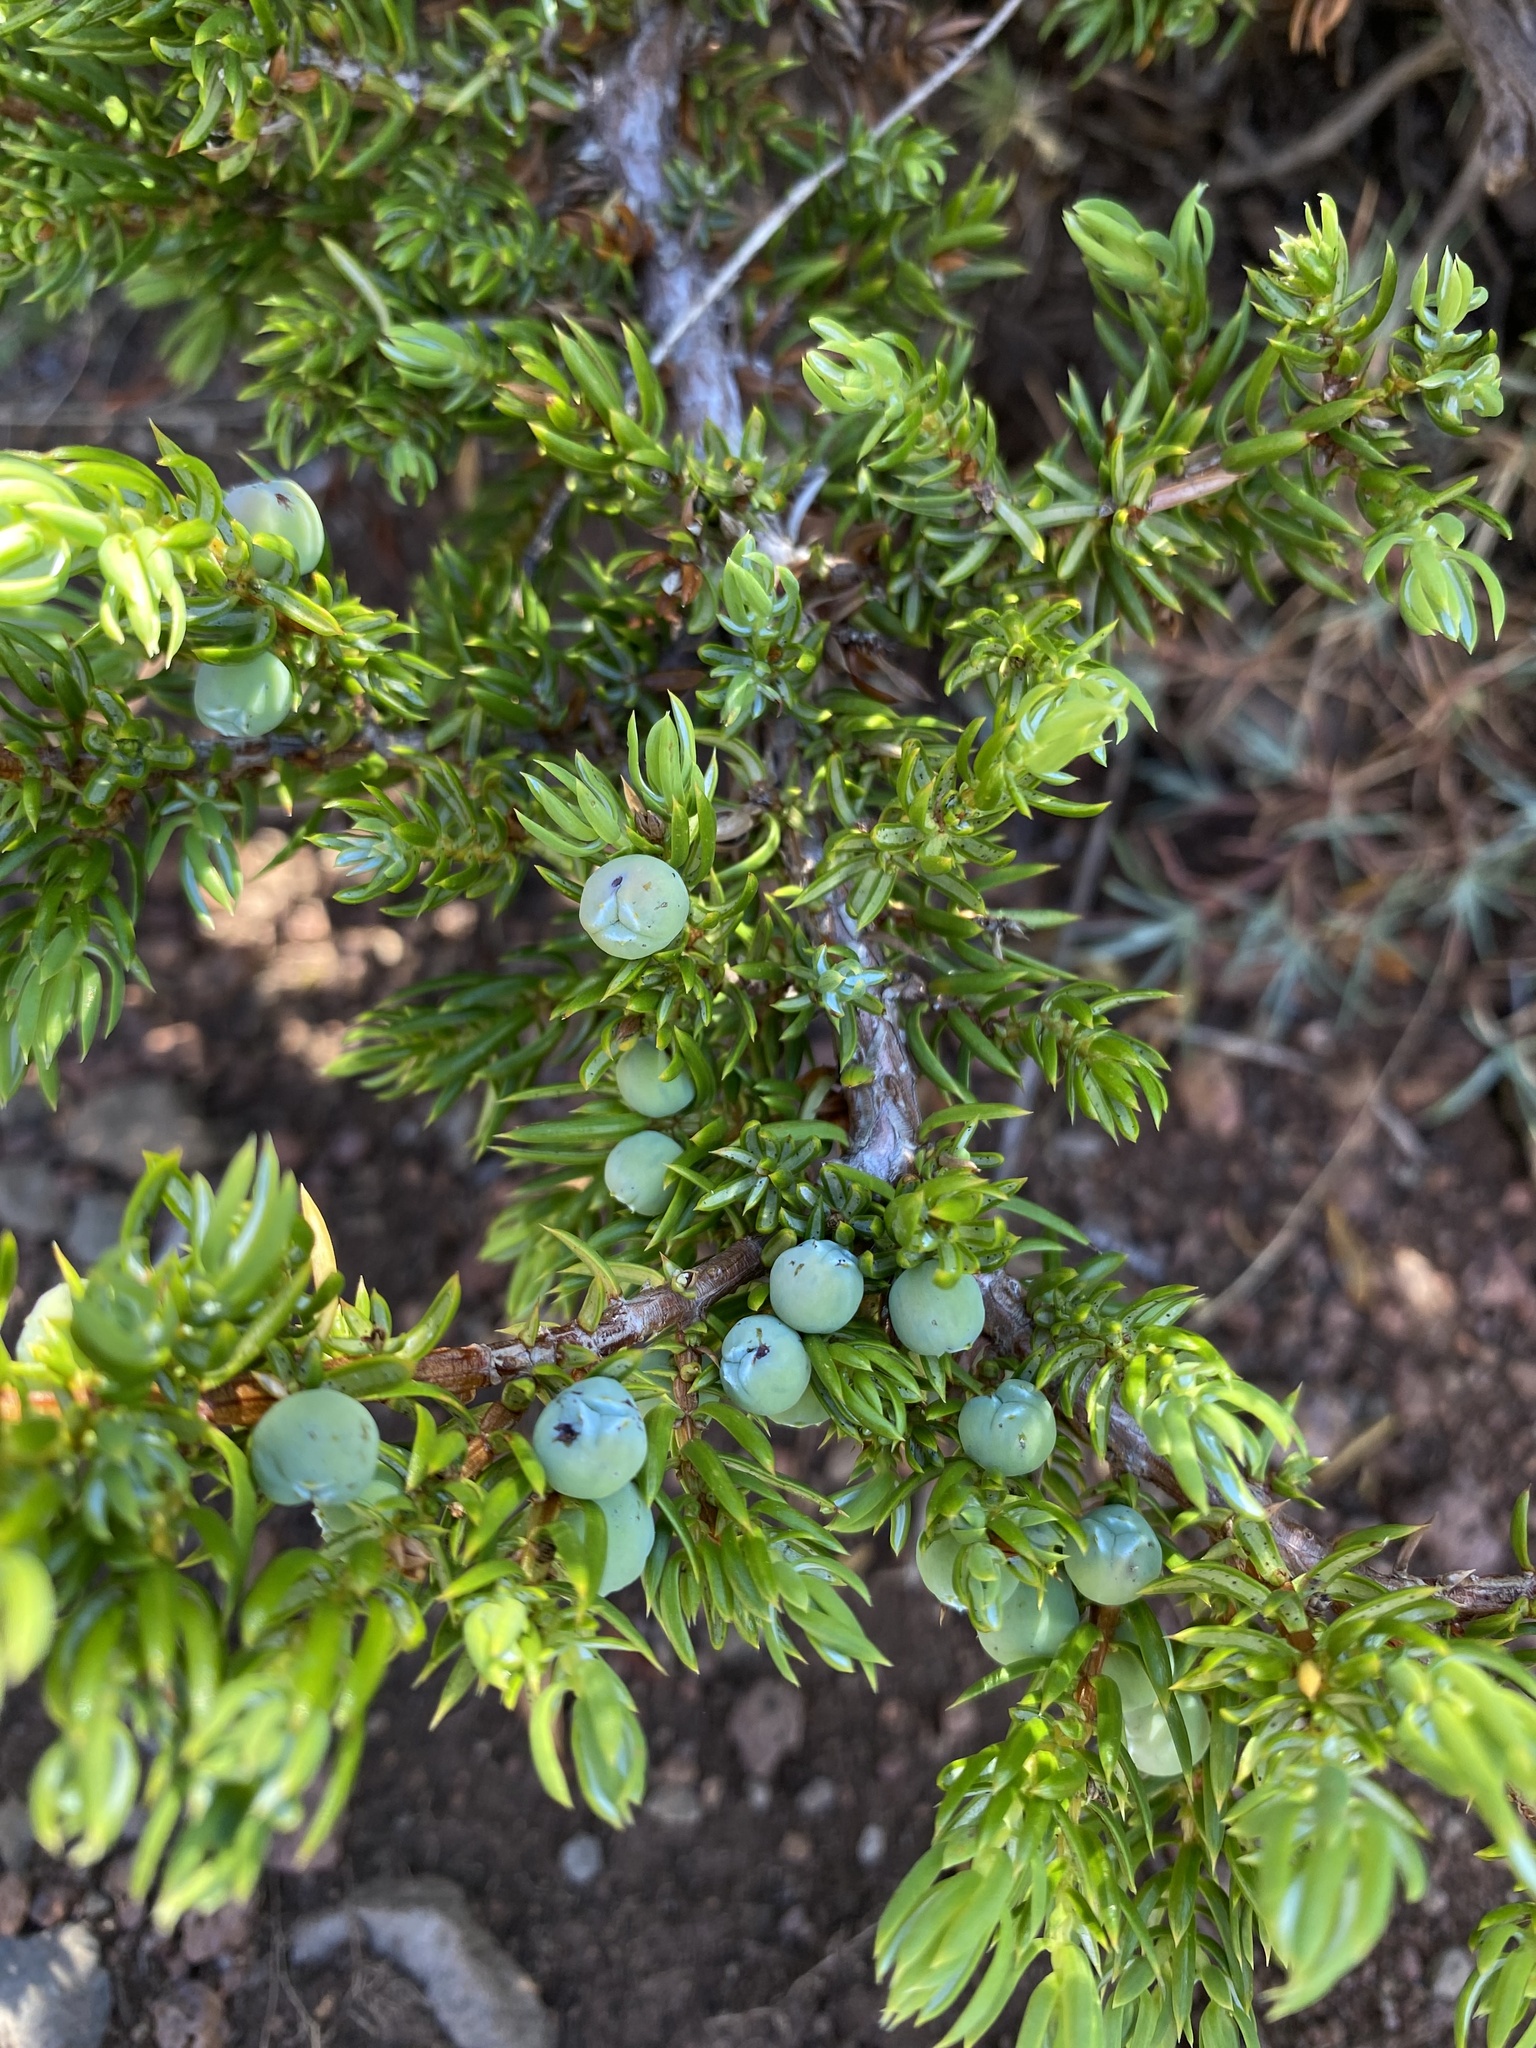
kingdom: Plantae
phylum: Tracheophyta
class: Pinopsida
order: Pinales
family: Cupressaceae
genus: Juniperus
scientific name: Juniperus communis
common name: Common juniper
